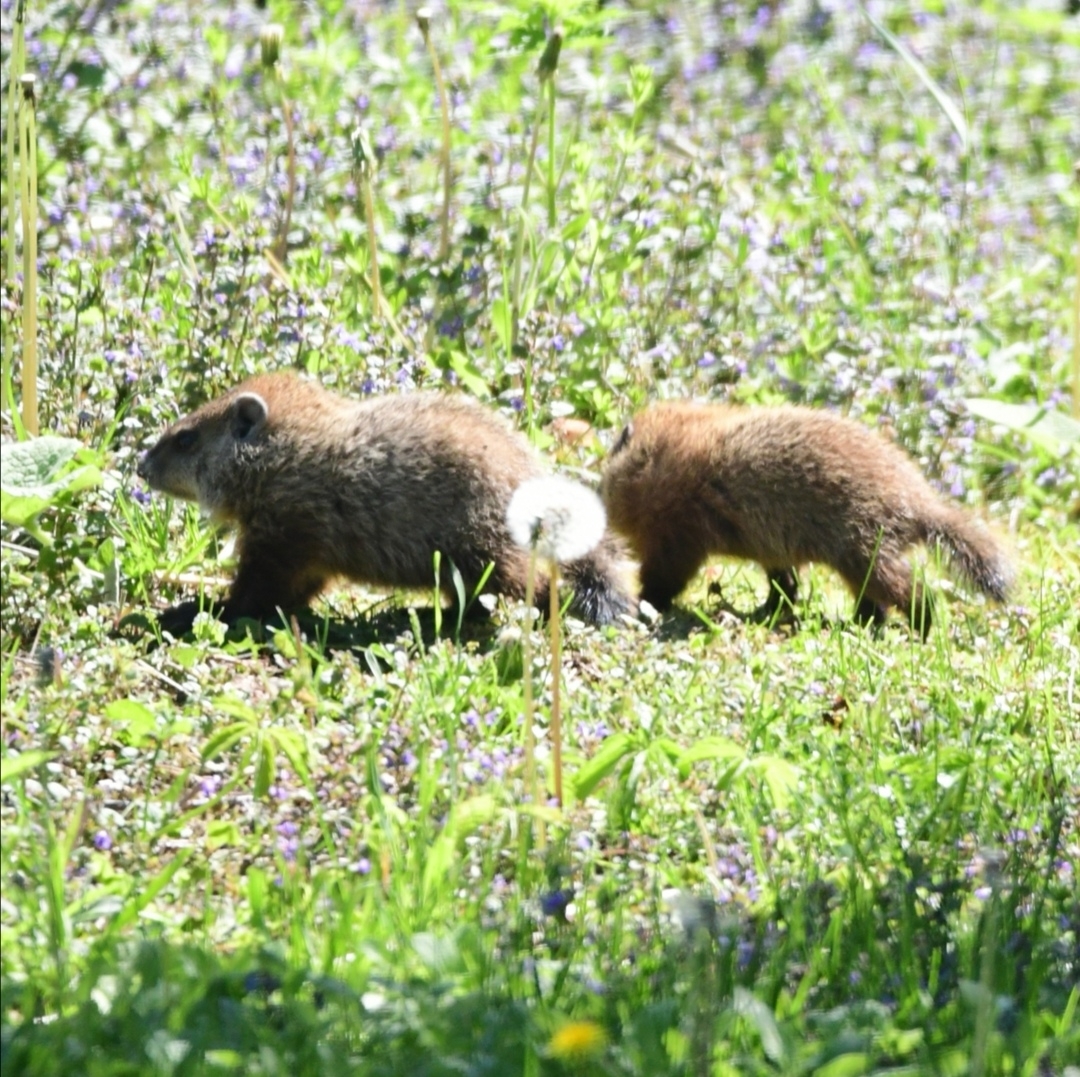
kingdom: Animalia
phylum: Chordata
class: Mammalia
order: Rodentia
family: Sciuridae
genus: Marmota
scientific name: Marmota monax
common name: Groundhog
